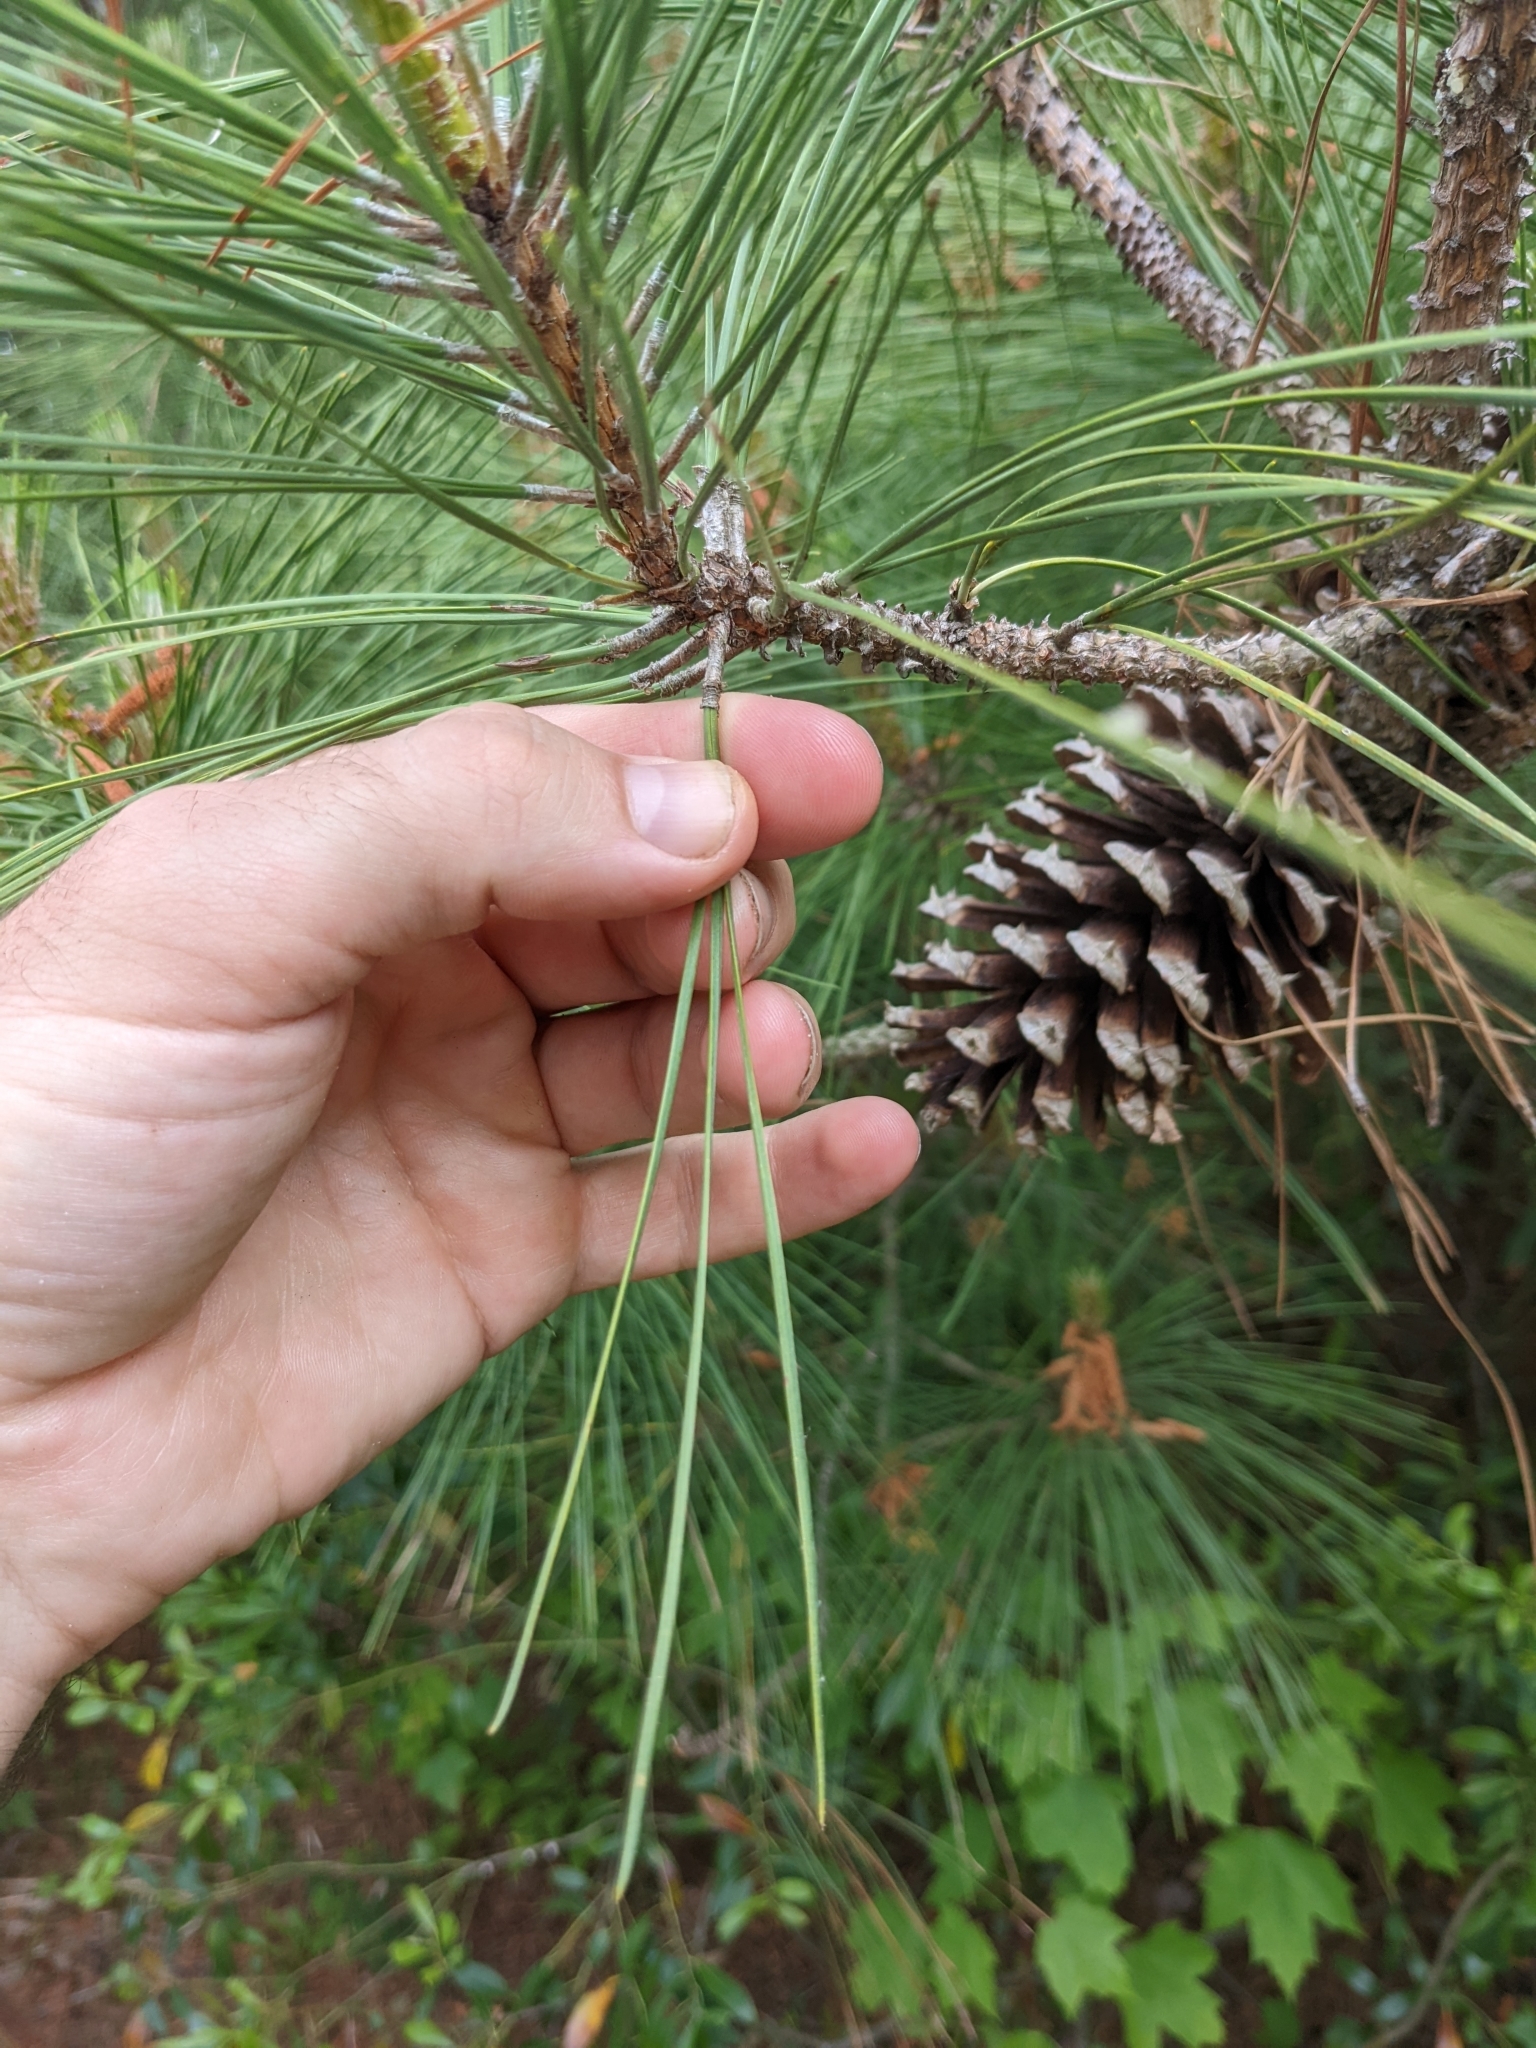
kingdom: Plantae
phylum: Tracheophyta
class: Pinopsida
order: Pinales
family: Pinaceae
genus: Pinus
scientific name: Pinus taeda
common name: Loblolly pine
